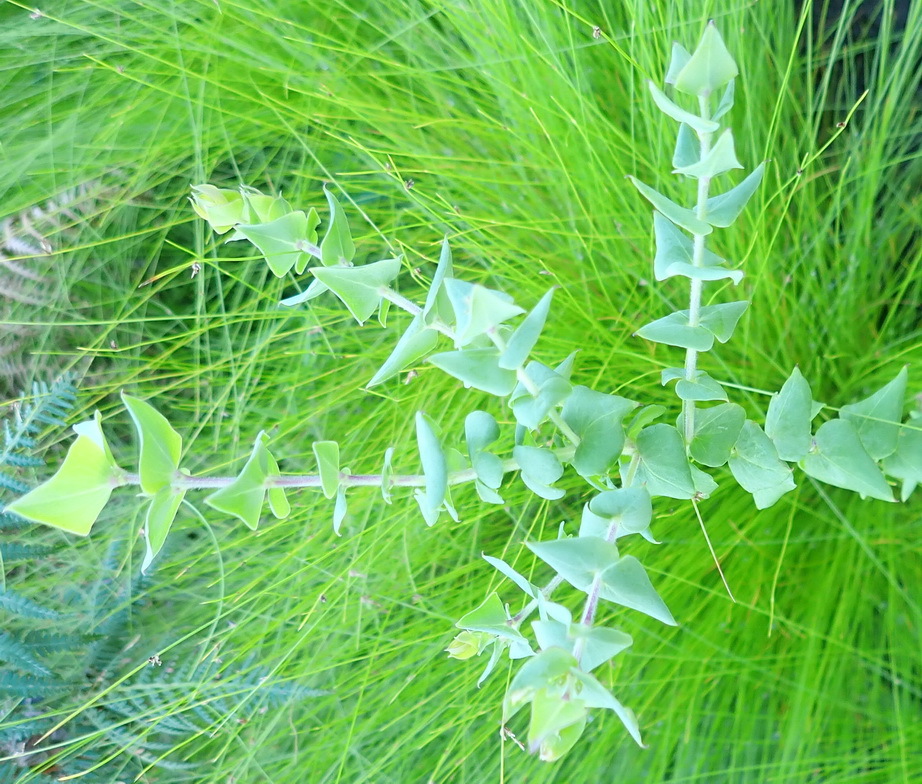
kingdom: Plantae
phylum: Tracheophyta
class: Magnoliopsida
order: Fabales
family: Polygalaceae
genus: Polygala
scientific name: Polygala fruticosa
